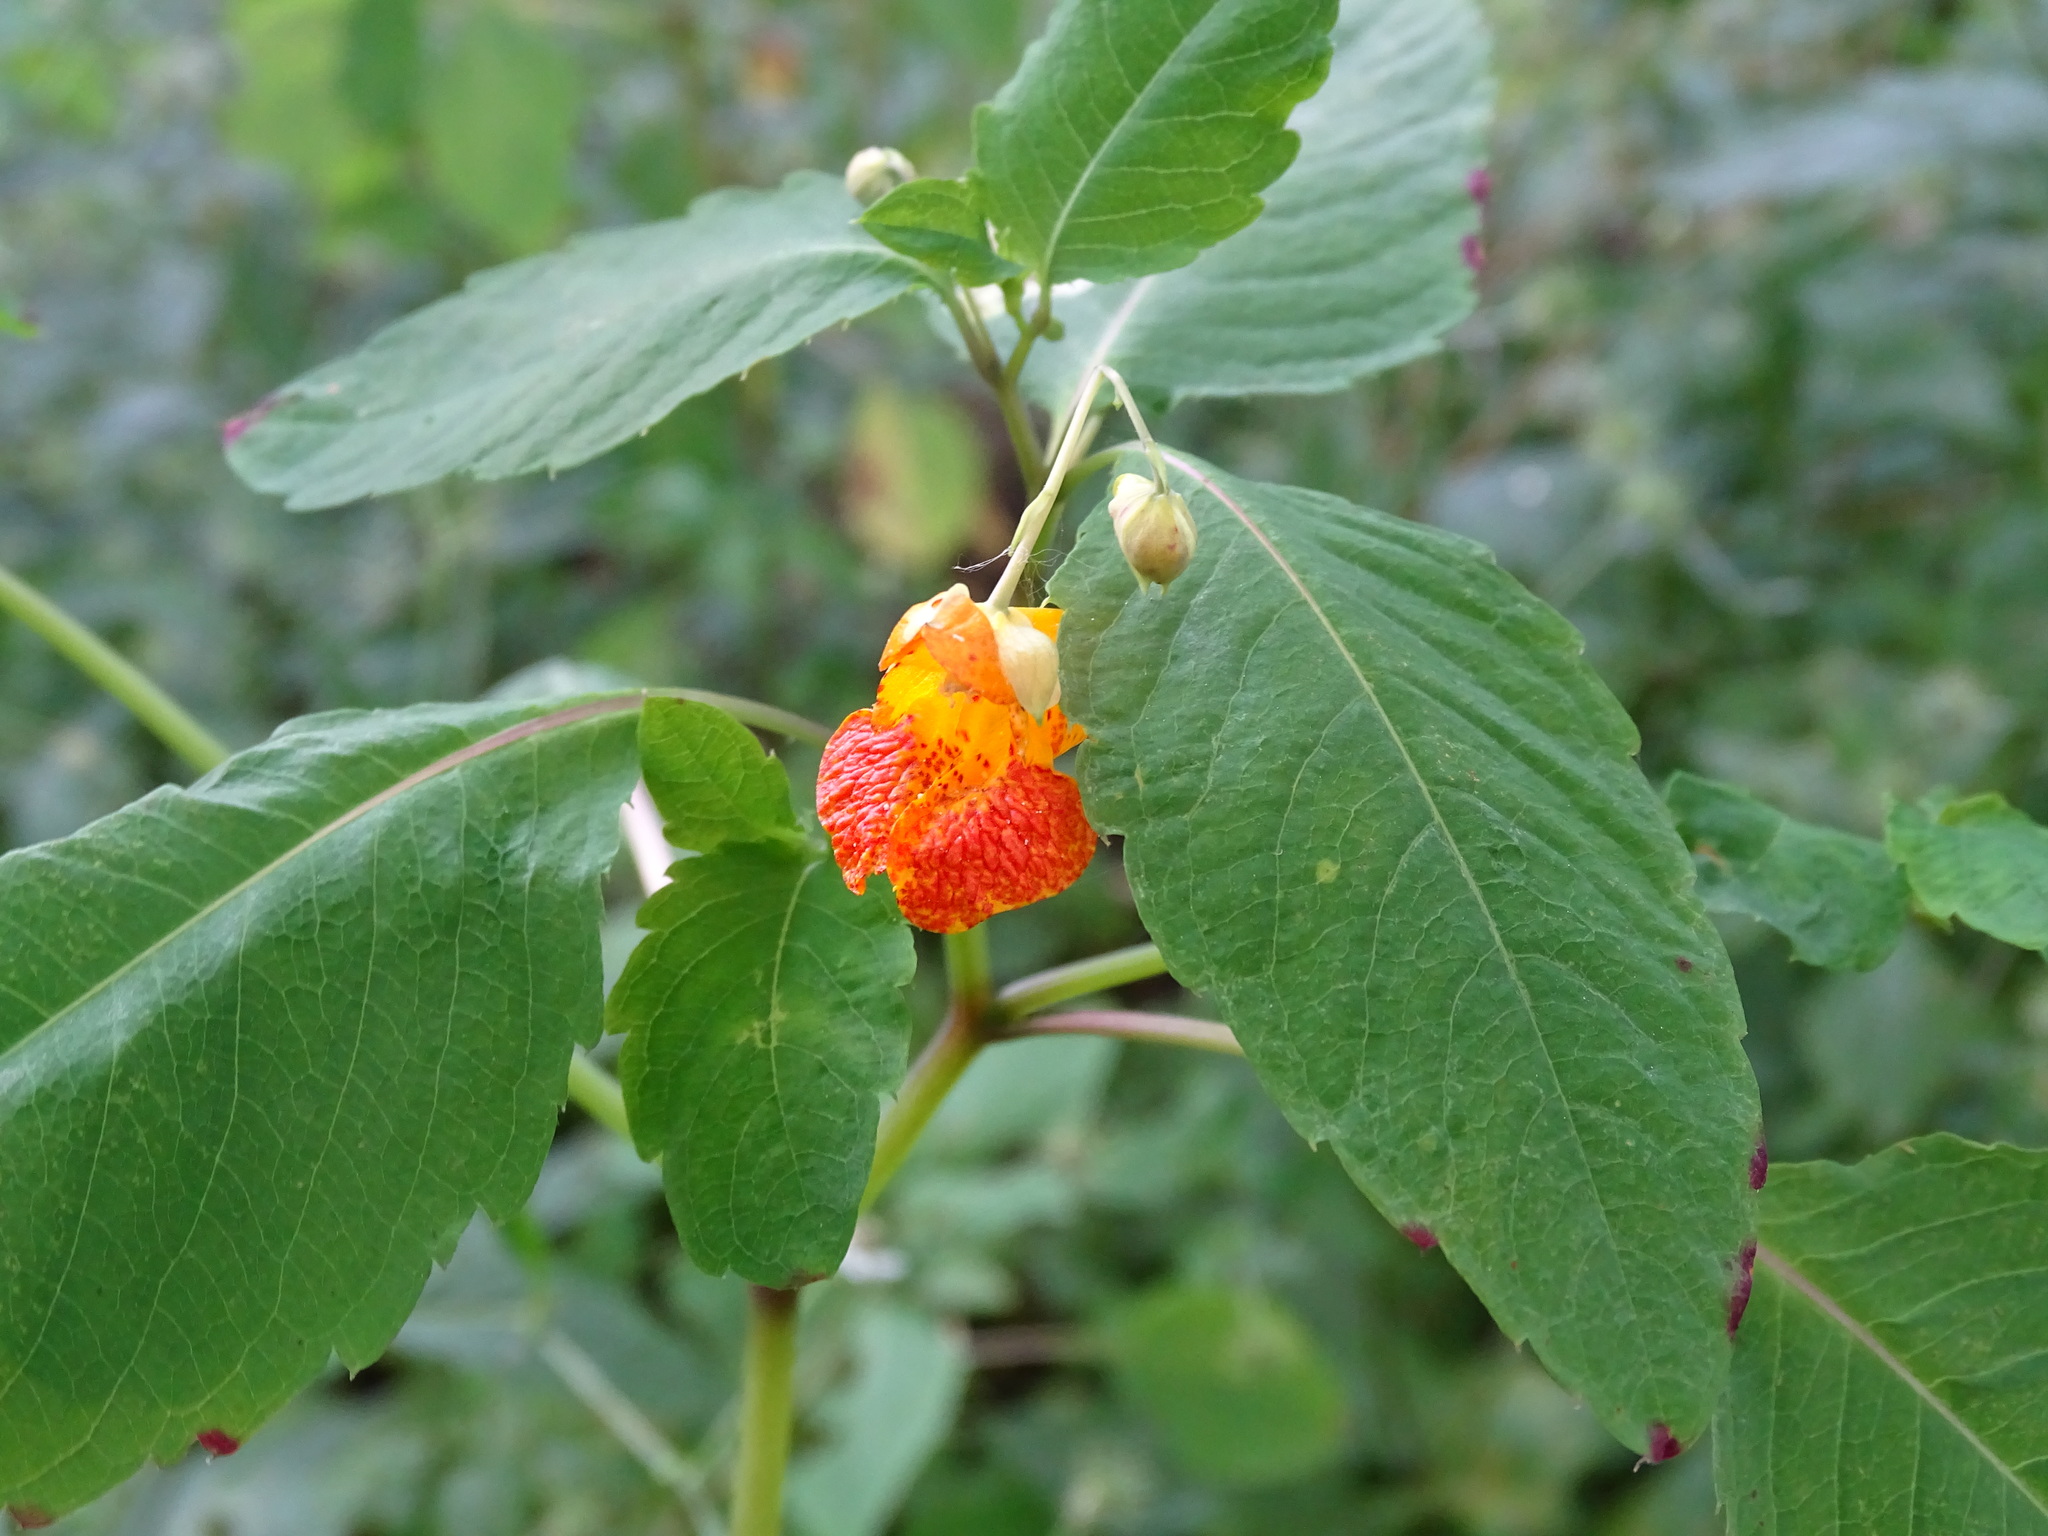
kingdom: Plantae
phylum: Tracheophyta
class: Magnoliopsida
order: Ericales
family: Balsaminaceae
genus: Impatiens
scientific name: Impatiens capensis
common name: Orange balsam
